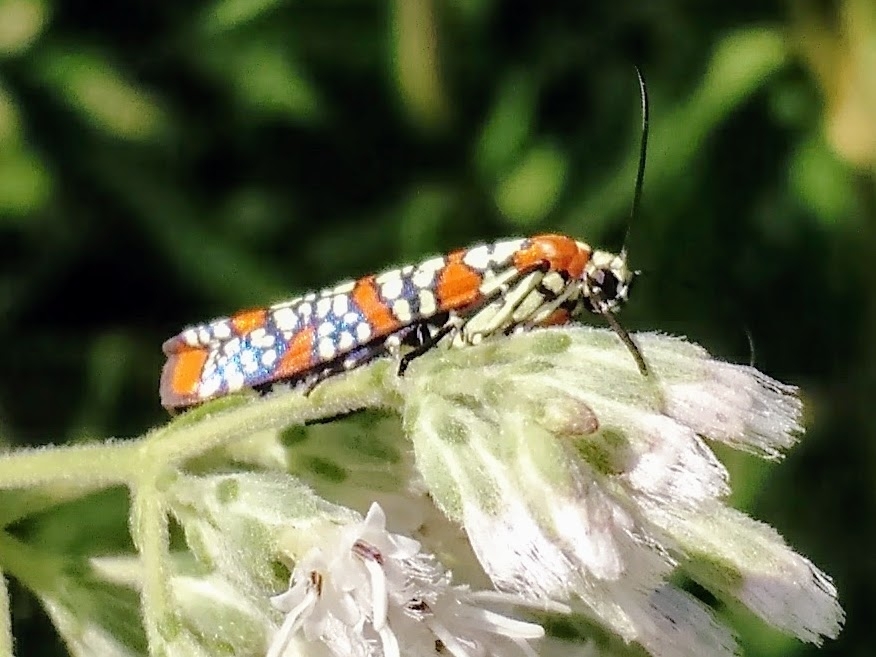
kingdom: Animalia
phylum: Arthropoda
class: Insecta
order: Lepidoptera
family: Attevidae
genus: Atteva
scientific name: Atteva punctella
